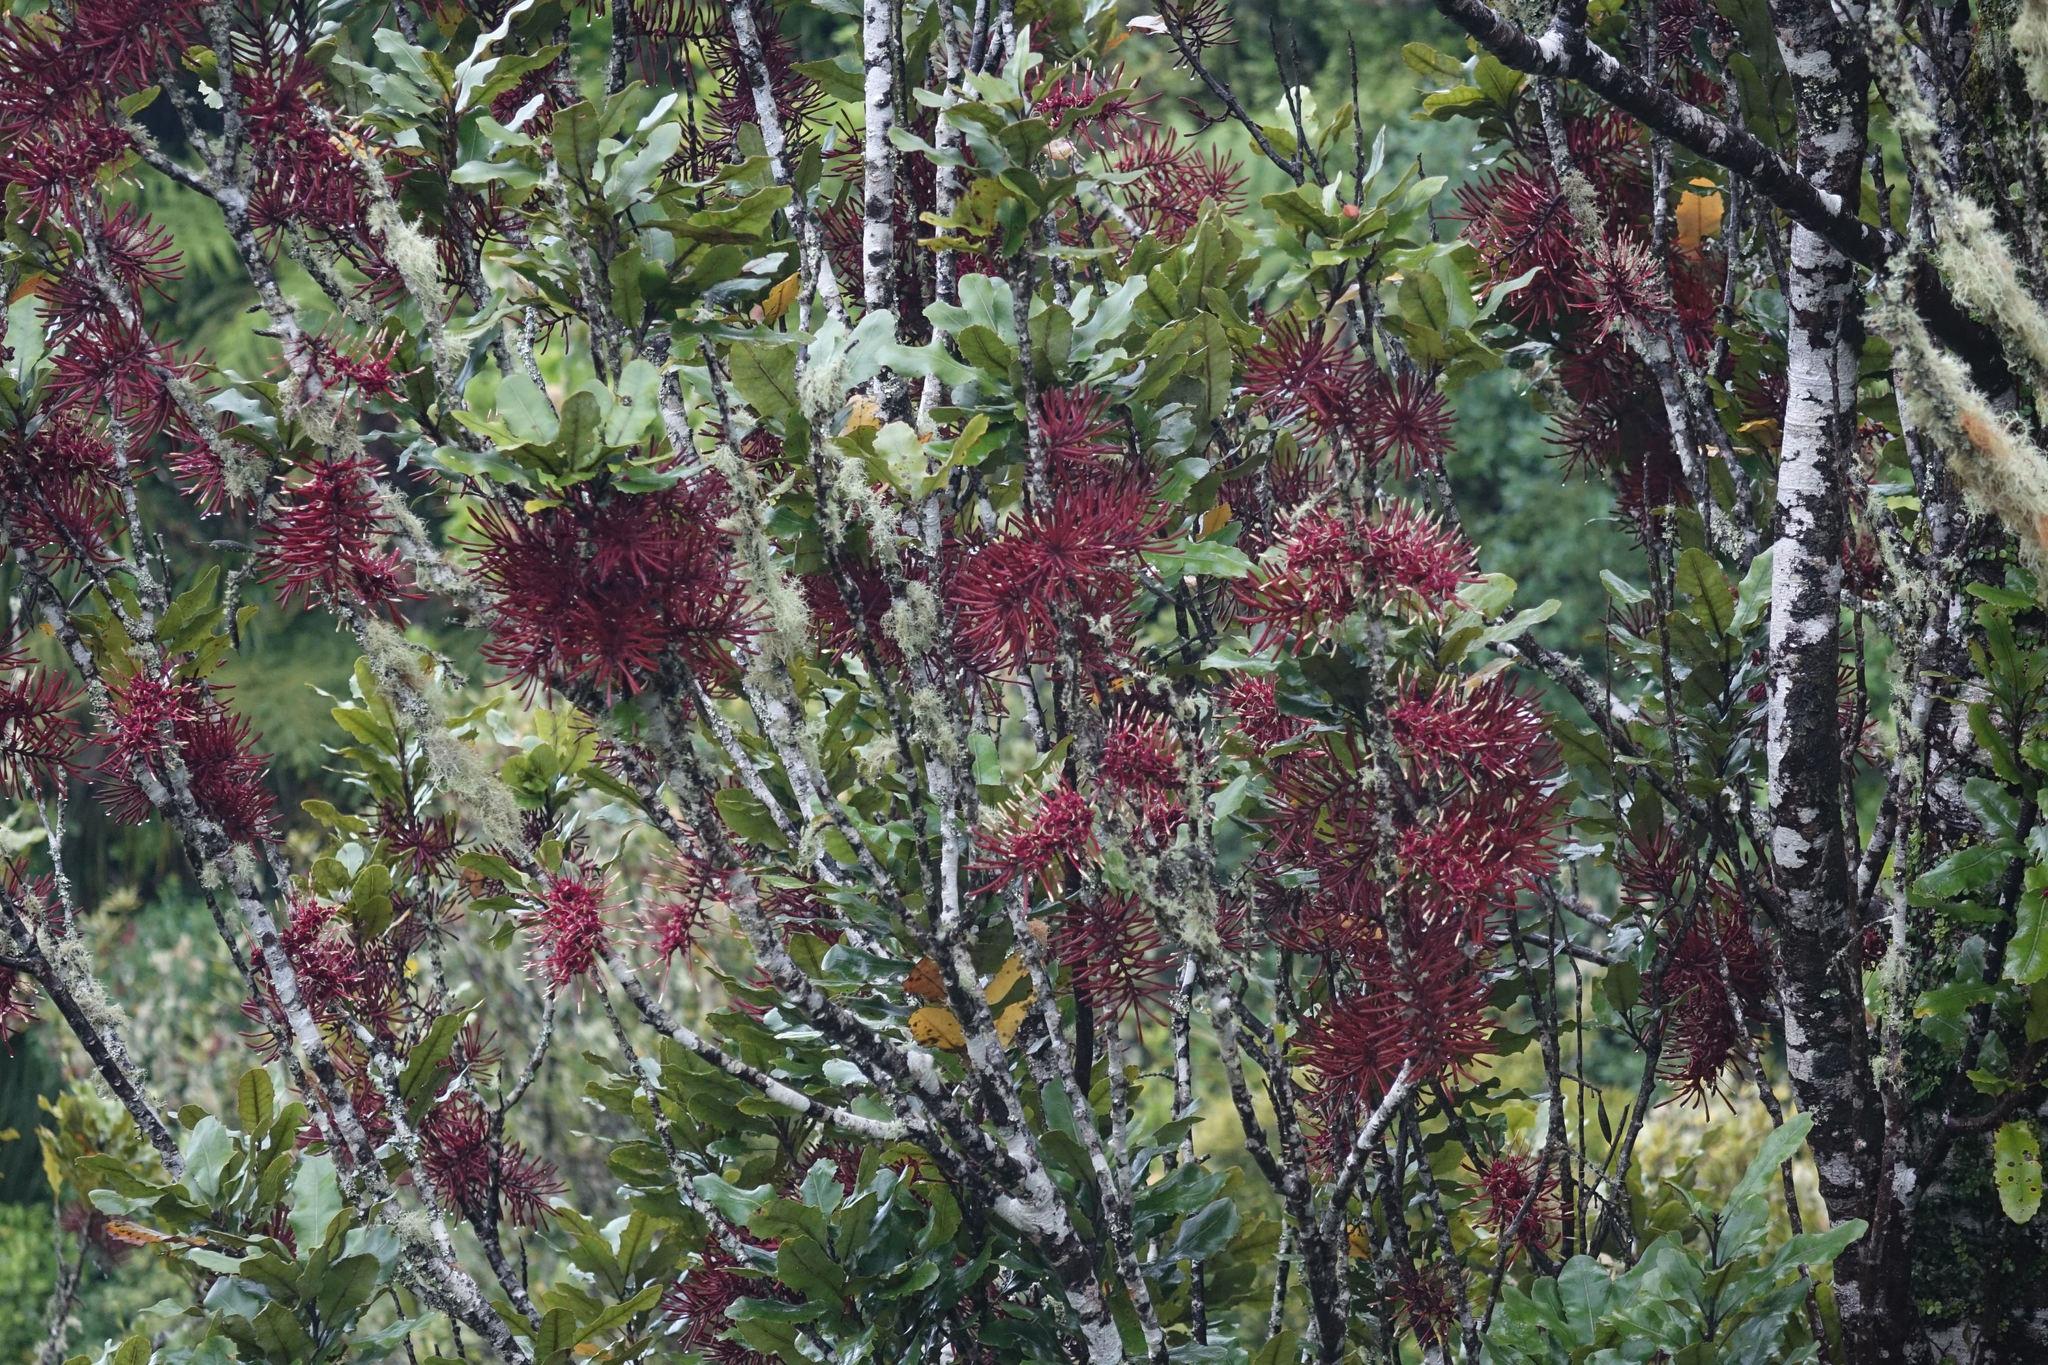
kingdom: Plantae
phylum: Tracheophyta
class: Magnoliopsida
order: Proteales
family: Proteaceae
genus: Knightia
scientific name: Knightia excelsa
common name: New zealand-honeysuckle
